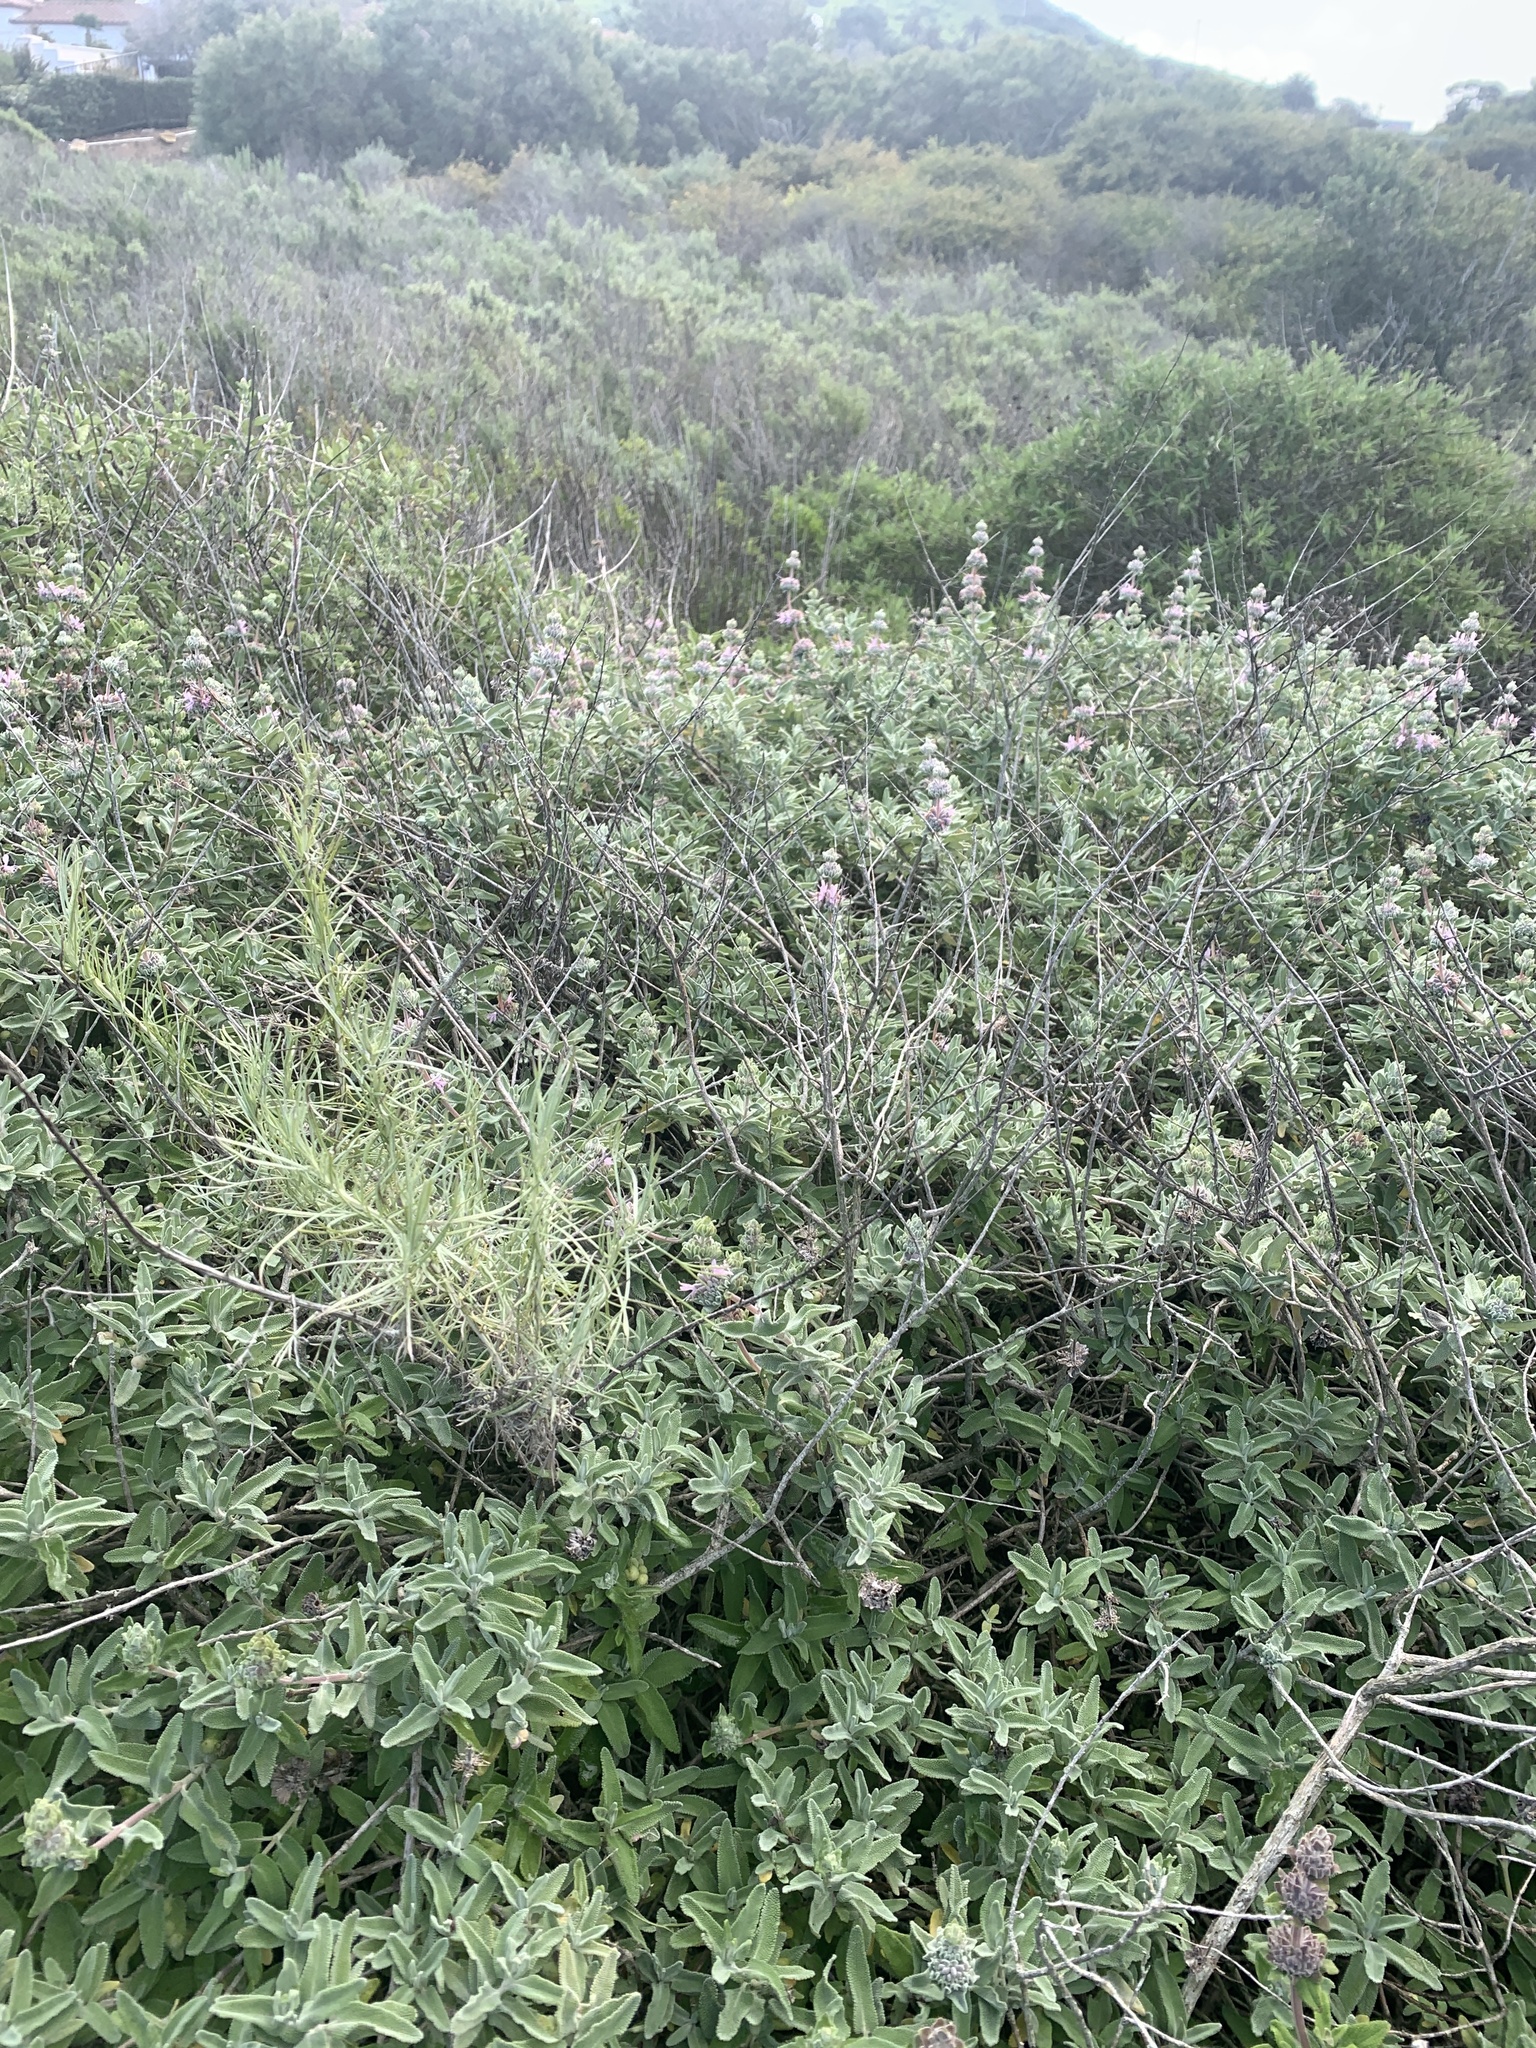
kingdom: Plantae
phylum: Tracheophyta
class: Magnoliopsida
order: Lamiales
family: Lamiaceae
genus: Salvia
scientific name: Salvia leucophylla
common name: Purple sage
